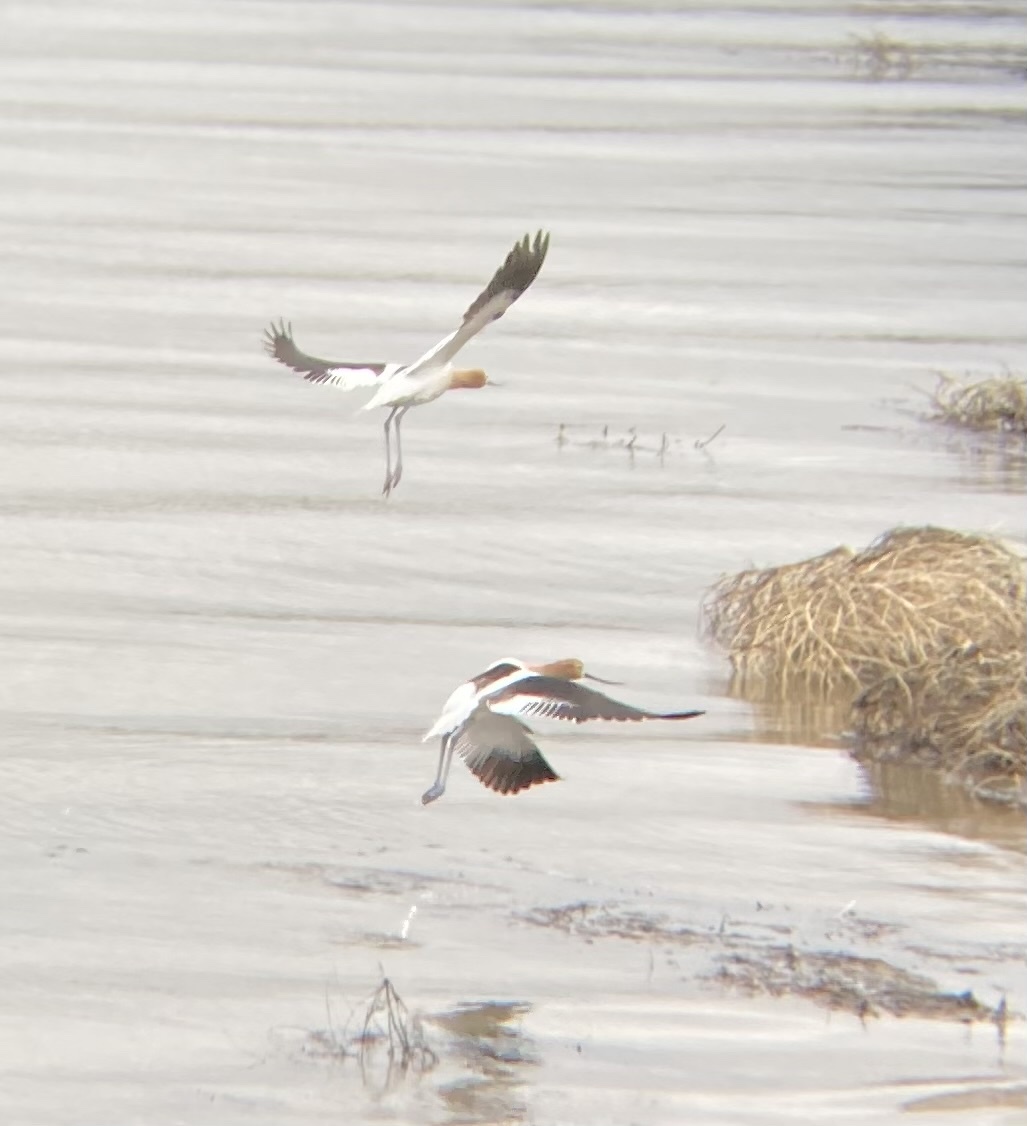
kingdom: Animalia
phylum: Chordata
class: Aves
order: Charadriiformes
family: Recurvirostridae
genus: Recurvirostra
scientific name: Recurvirostra americana
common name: American avocet
